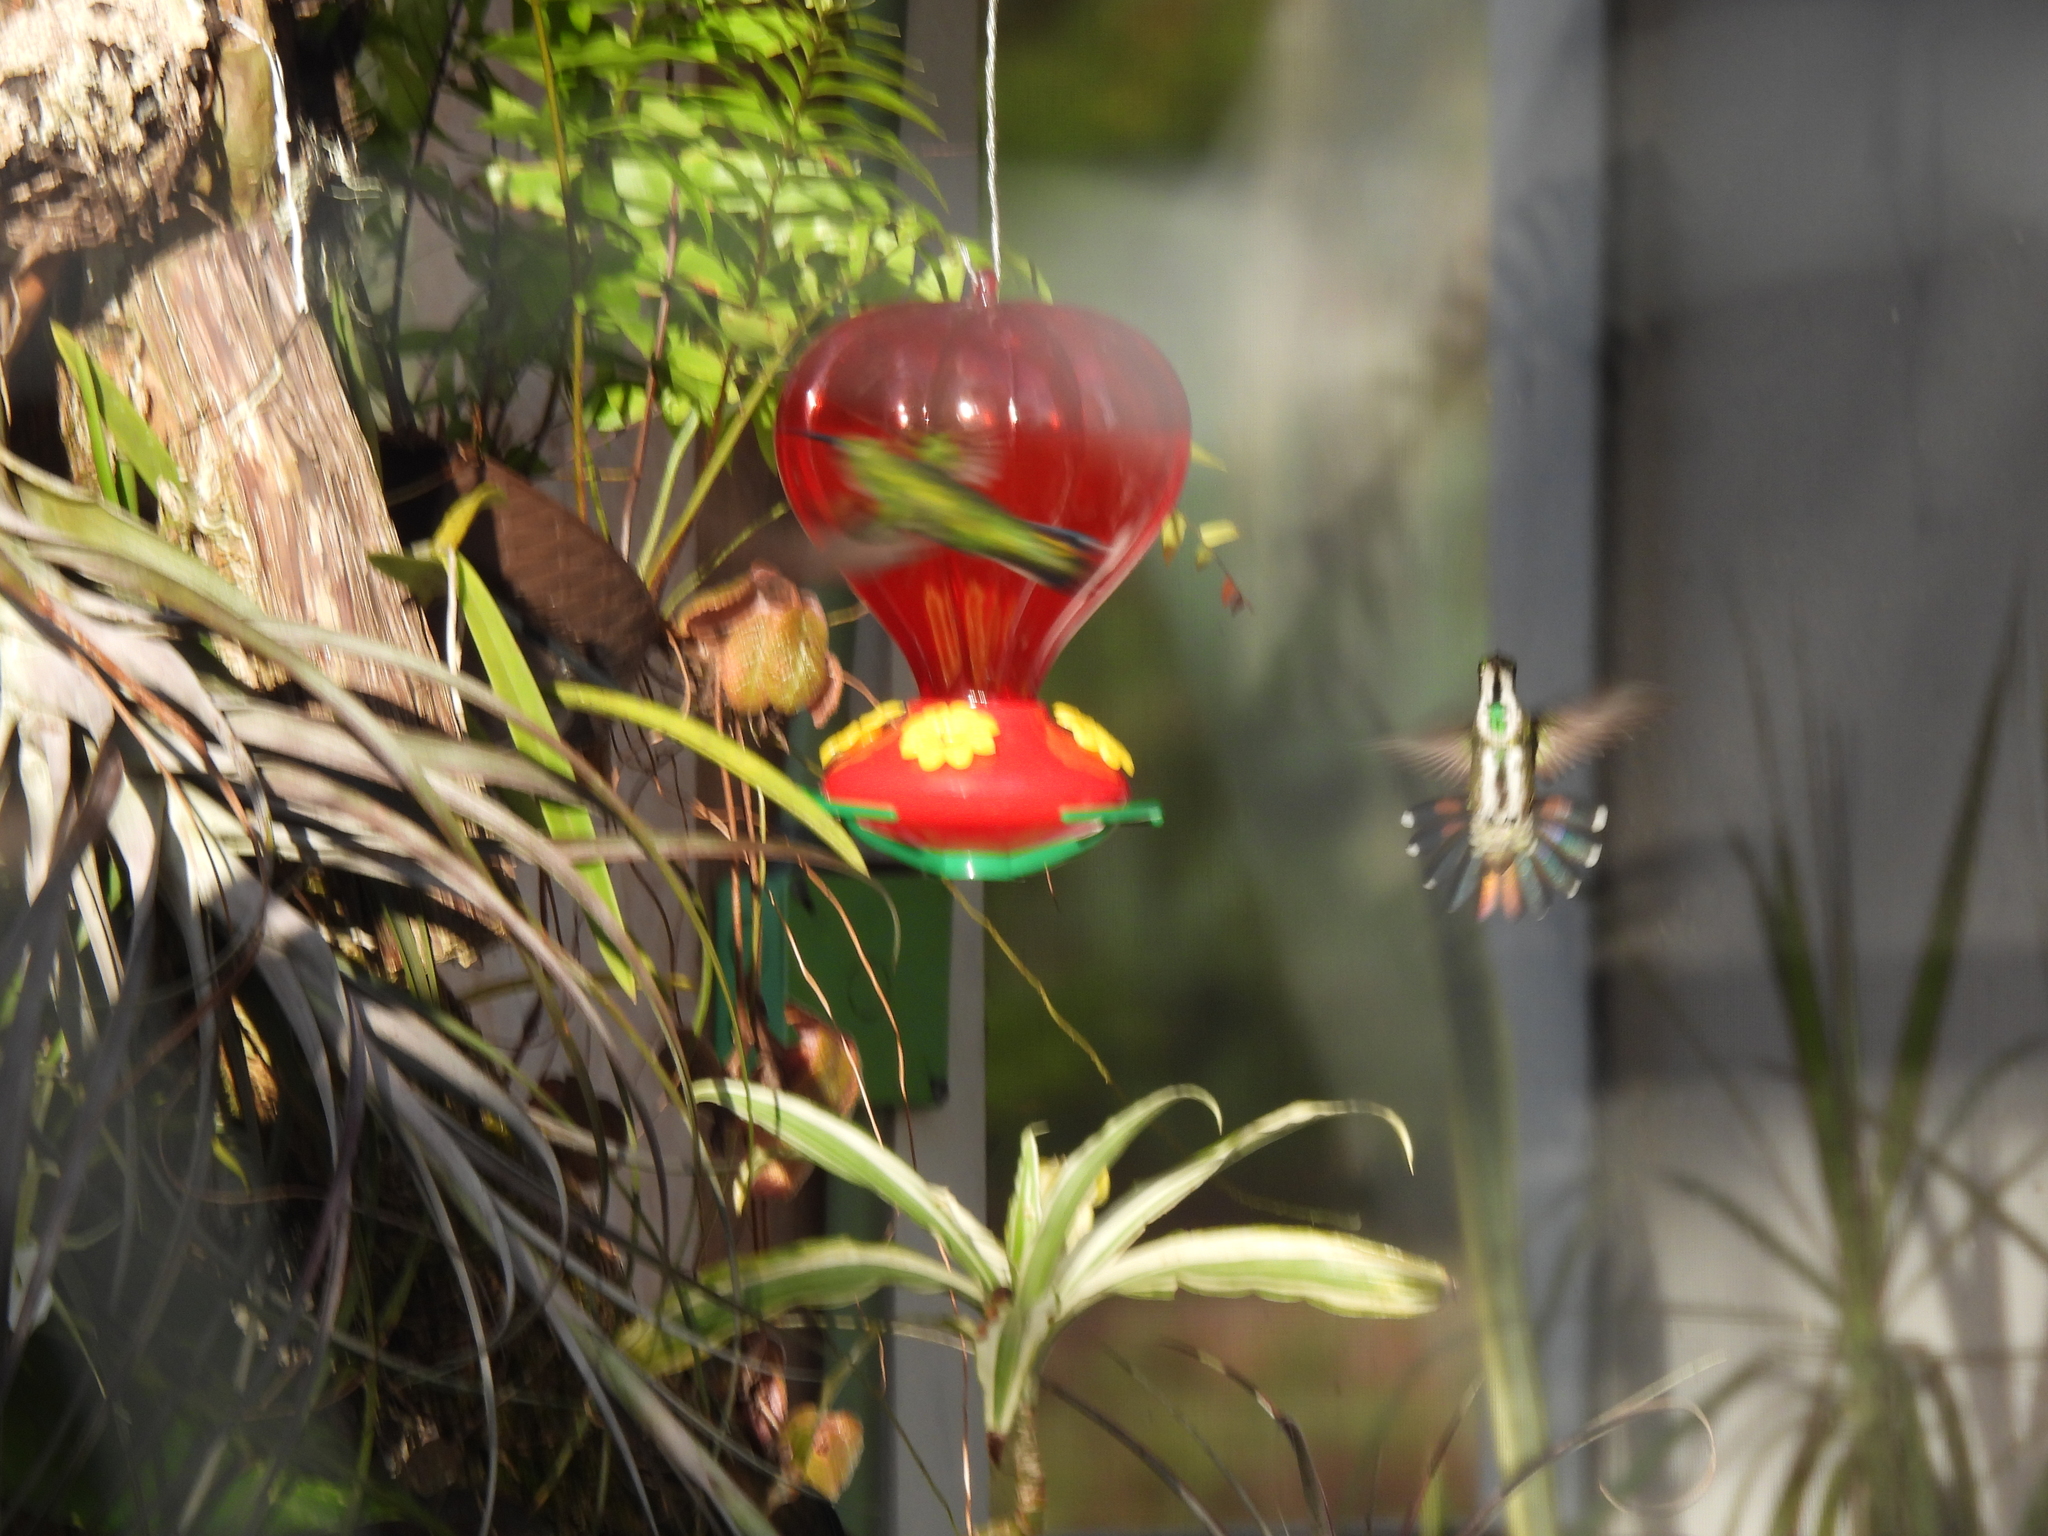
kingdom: Animalia
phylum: Chordata
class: Aves
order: Apodiformes
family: Trochilidae
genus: Anthracothorax
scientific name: Anthracothorax prevostii
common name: Green-breasted mango
